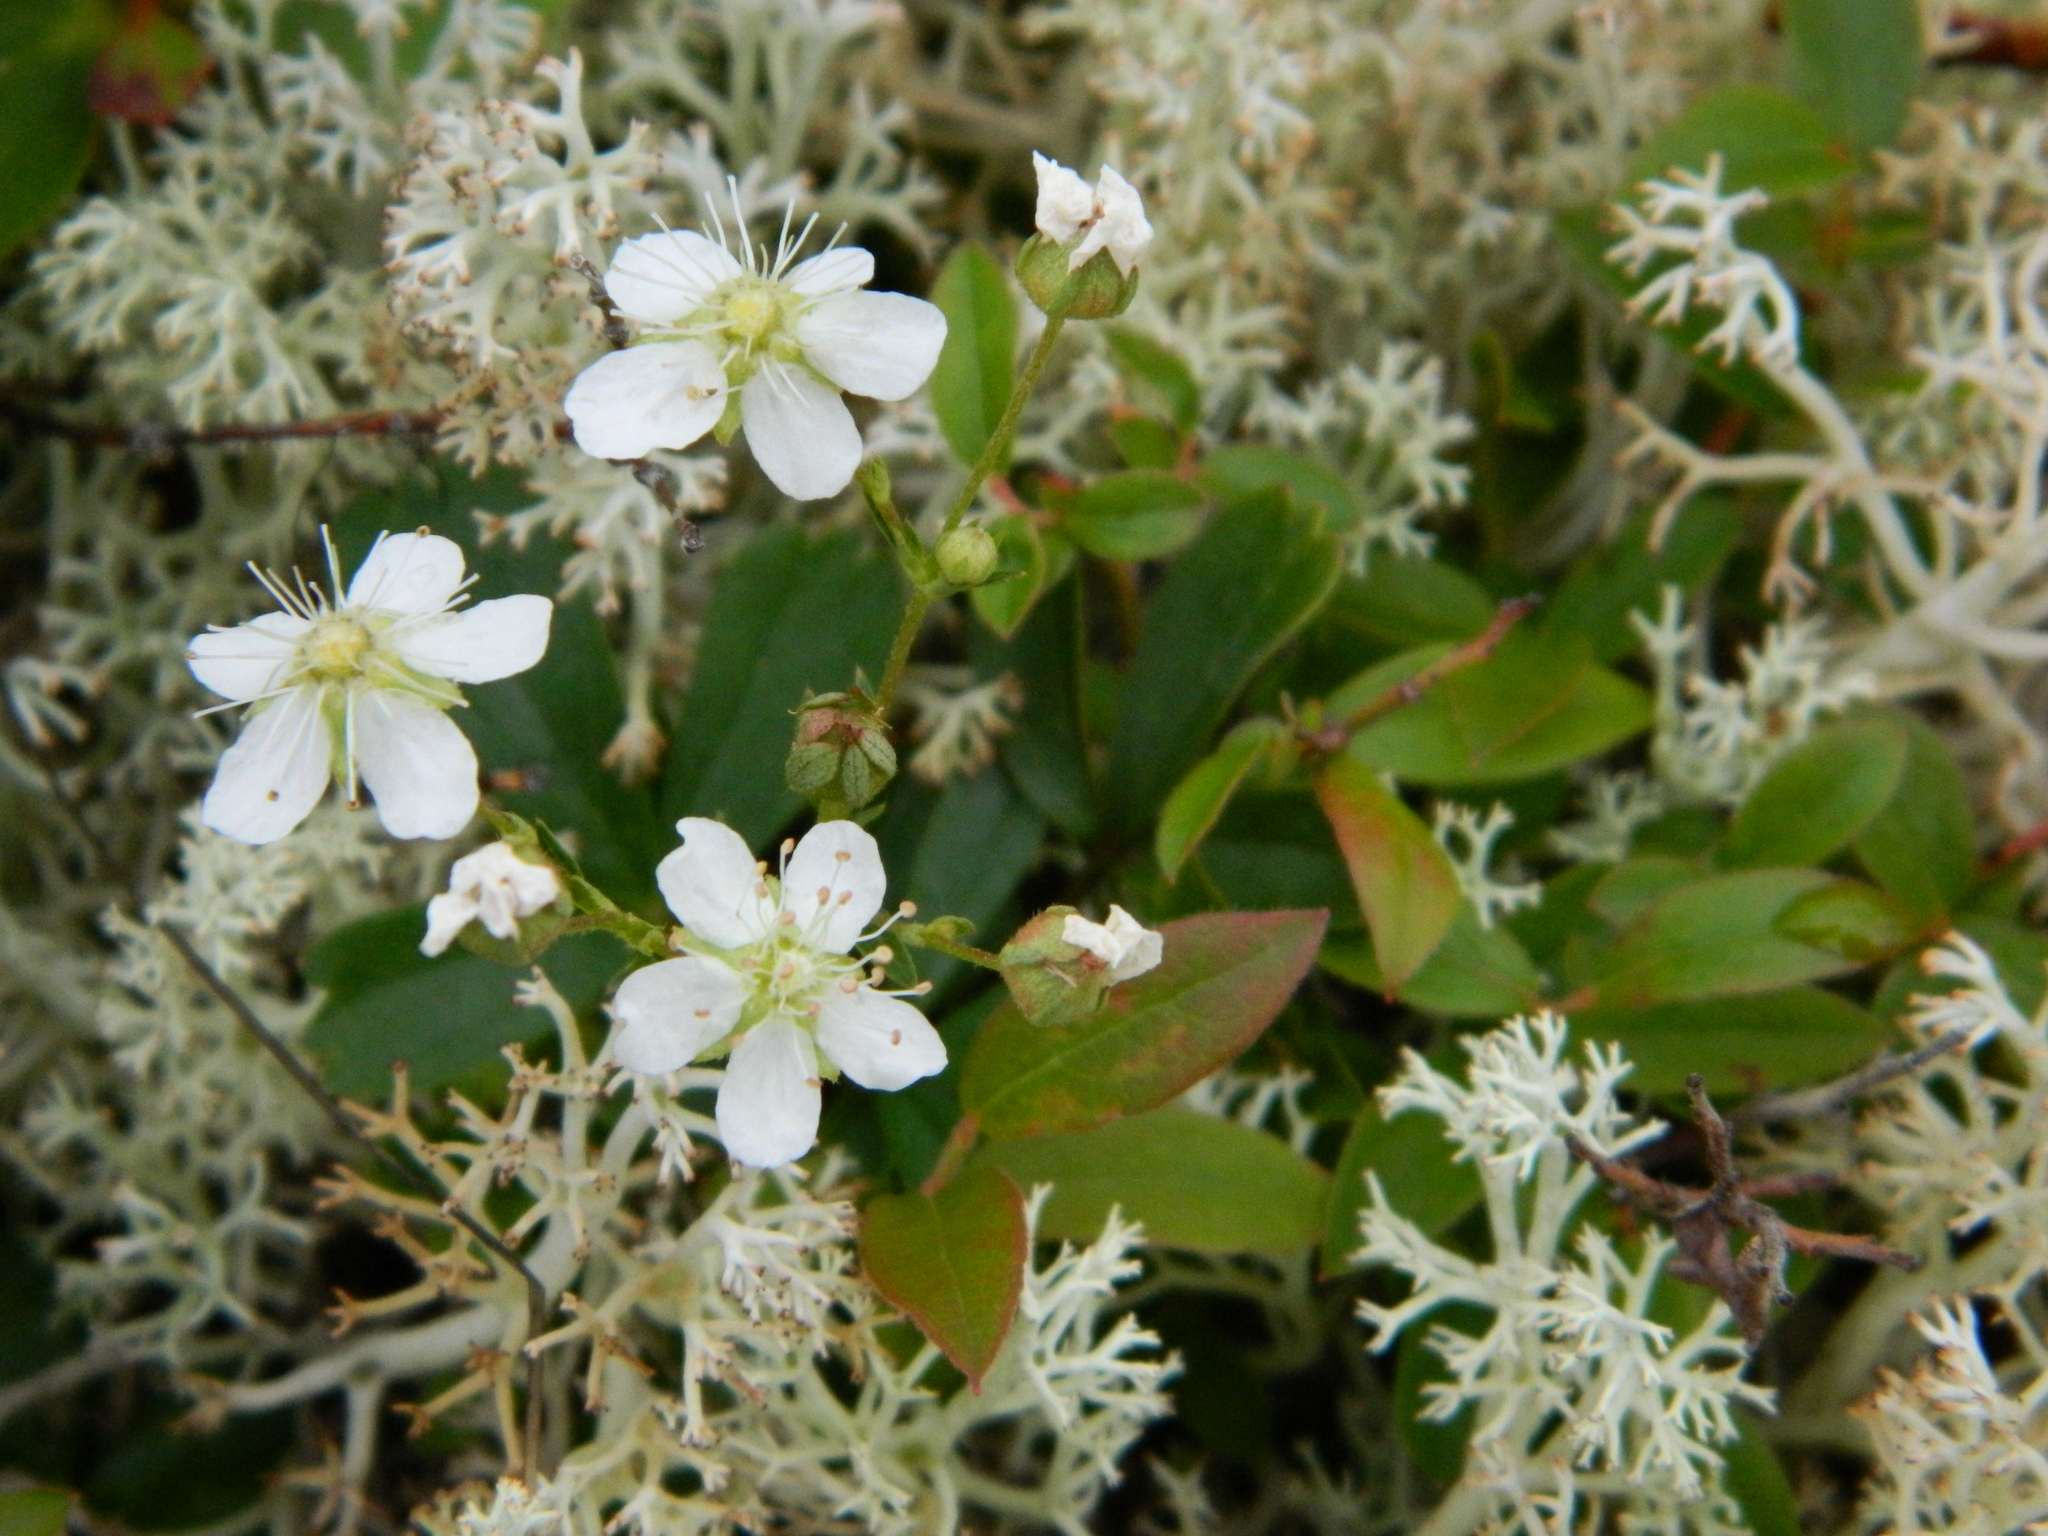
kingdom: Plantae
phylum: Tracheophyta
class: Magnoliopsida
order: Rosales
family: Rosaceae
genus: Sibbaldia
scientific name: Sibbaldia tridentata
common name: Three-toothed cinquefoil
